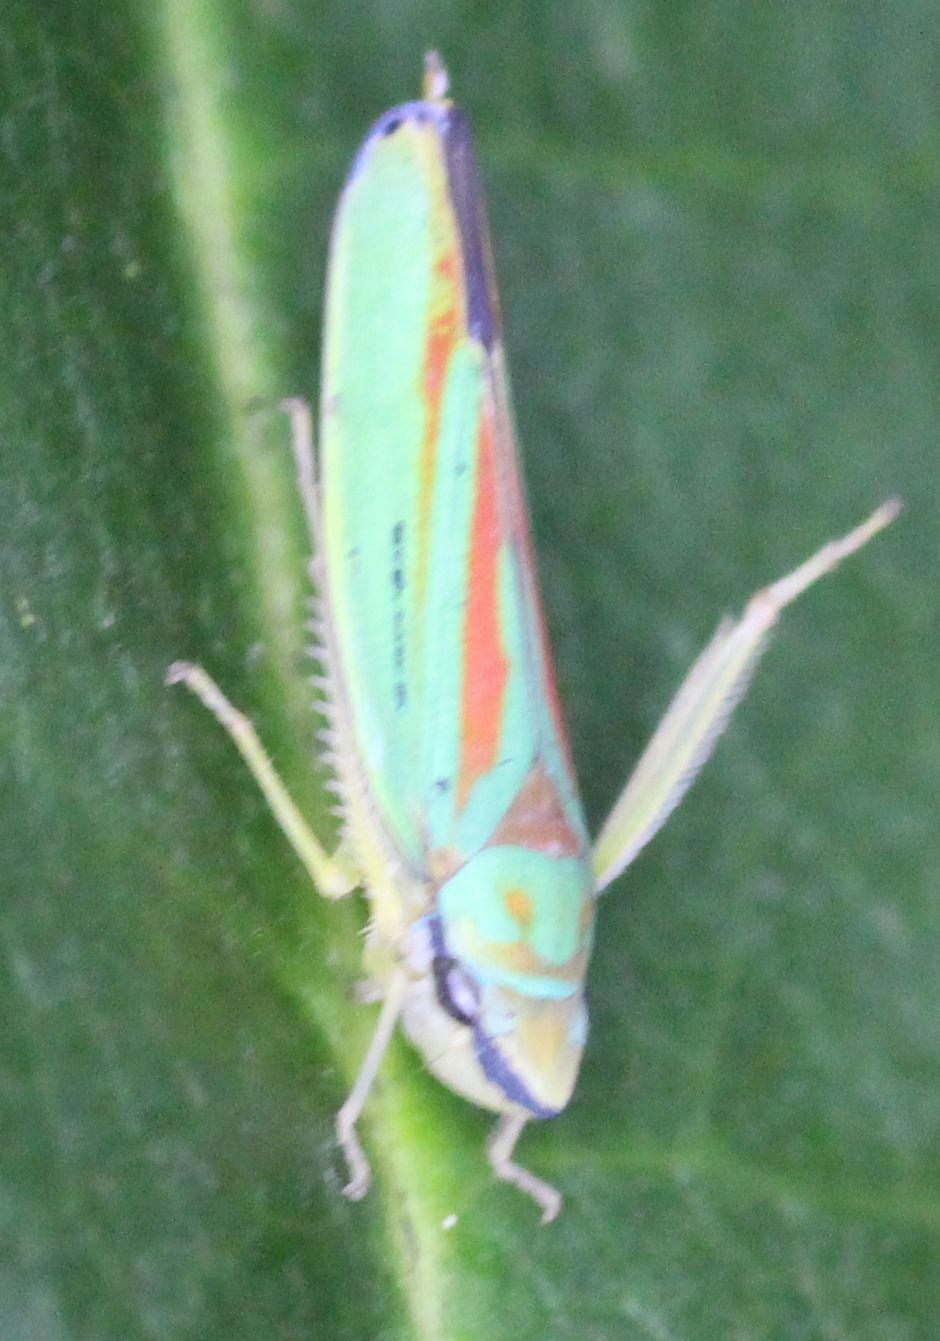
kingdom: Animalia
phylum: Arthropoda
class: Insecta
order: Hemiptera
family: Cicadellidae
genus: Graphocephala
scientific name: Graphocephala fennahi
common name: Rhododendron leafhopper
